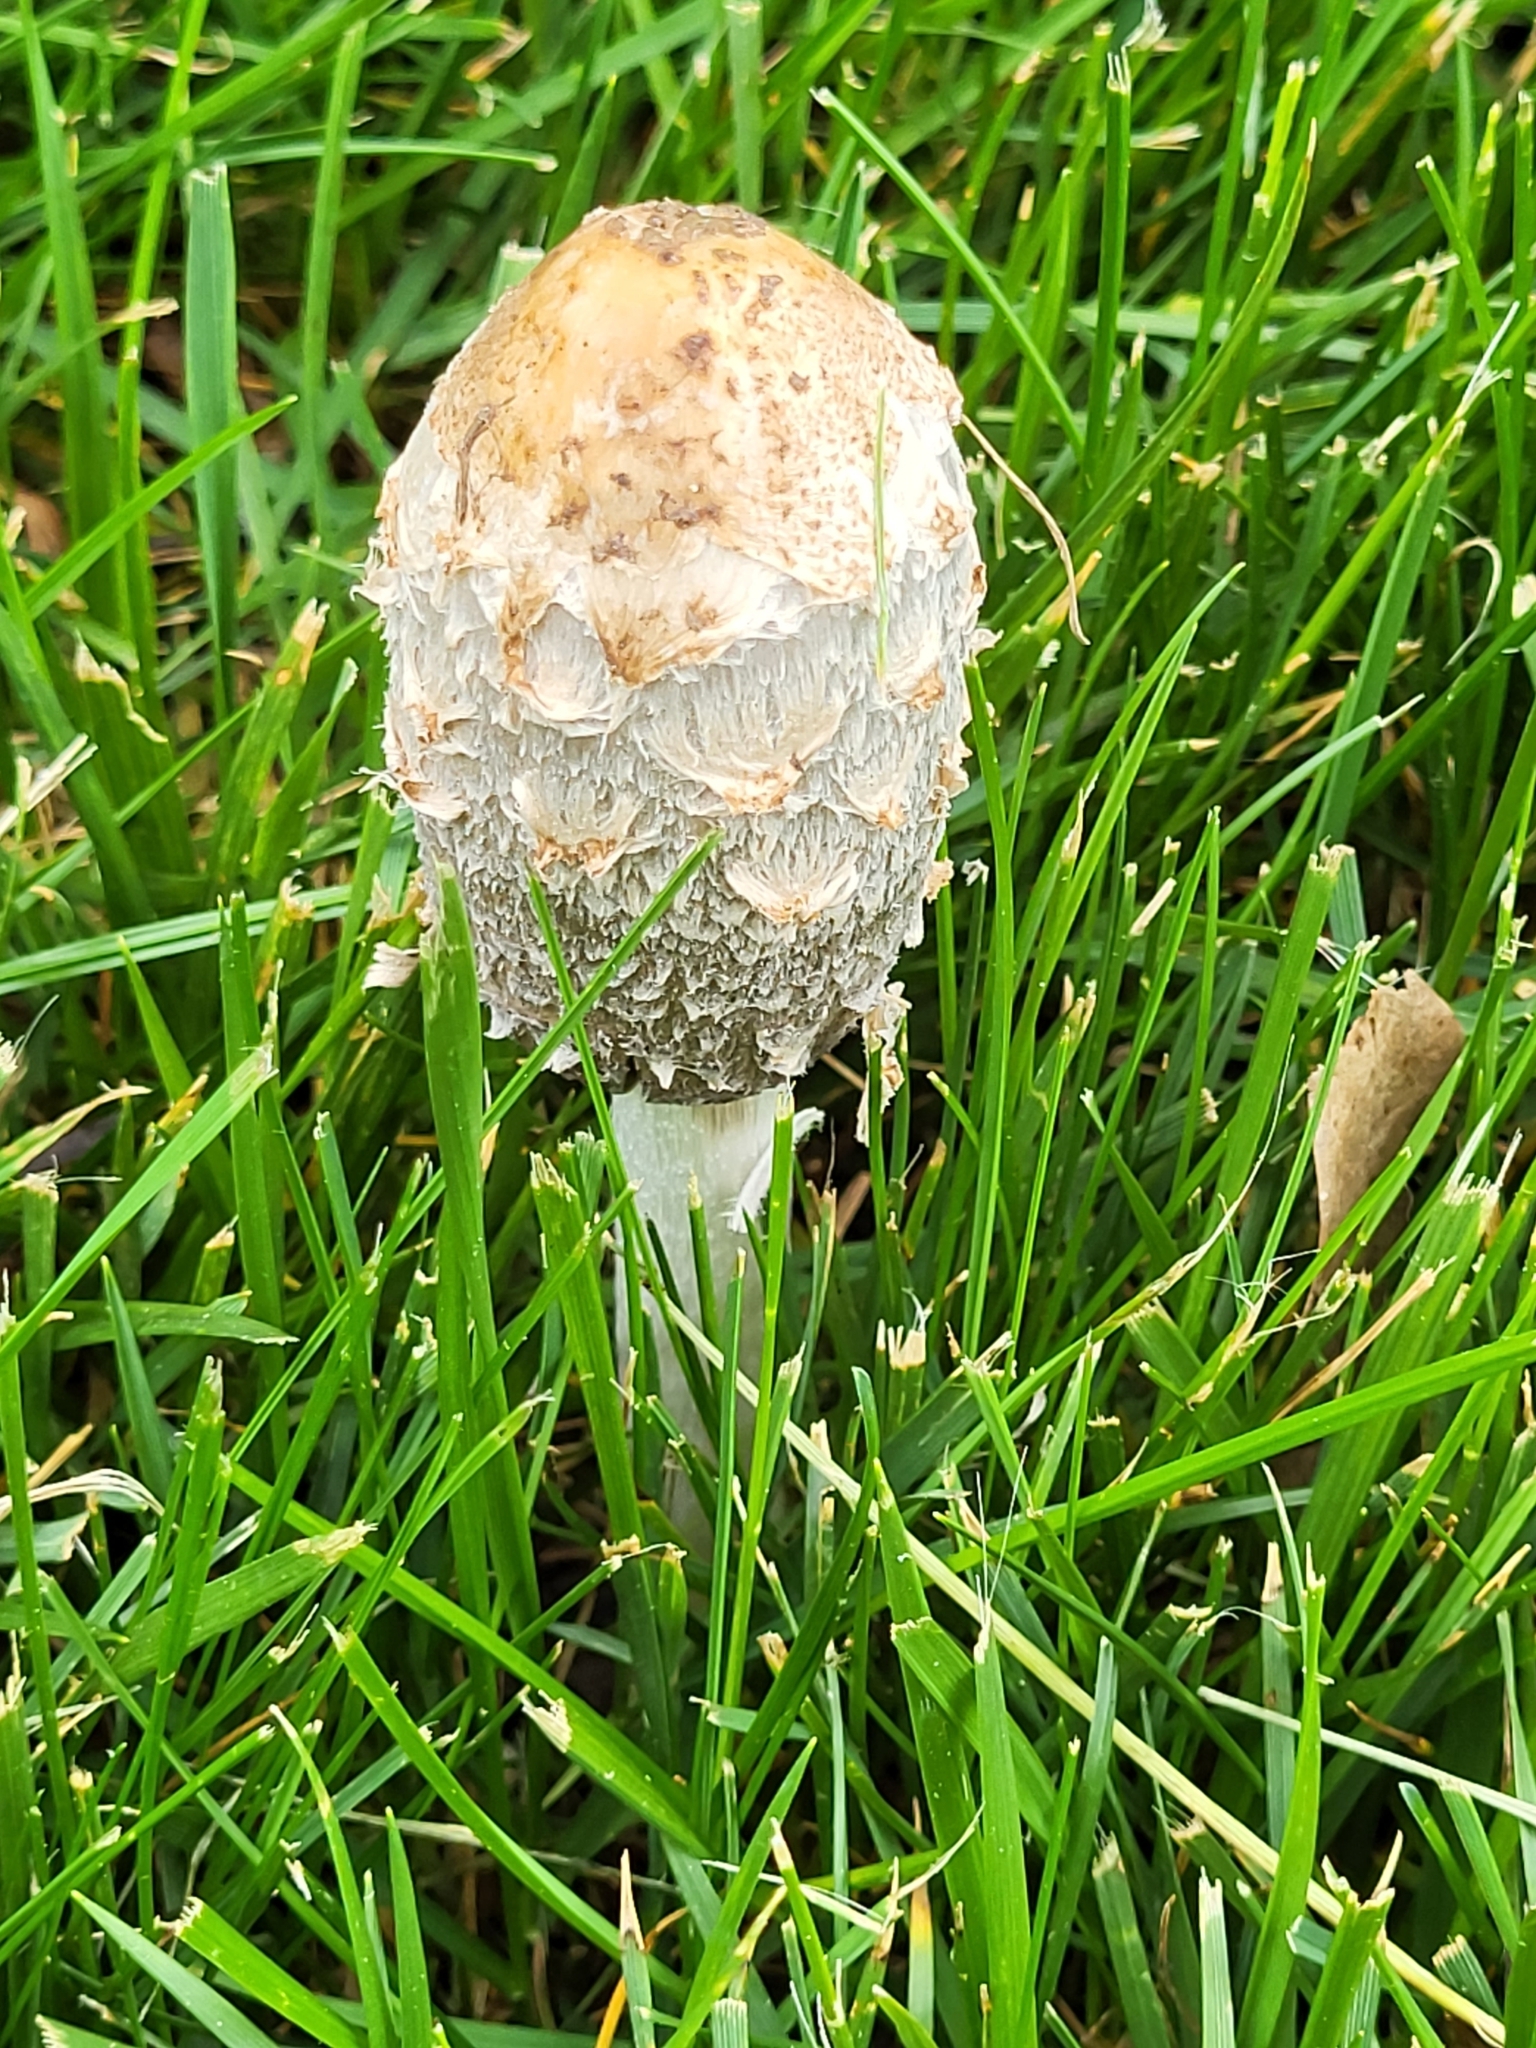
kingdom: Fungi
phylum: Basidiomycota
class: Agaricomycetes
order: Agaricales
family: Agaricaceae
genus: Coprinus
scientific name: Coprinus comatus
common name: Lawyer's wig
